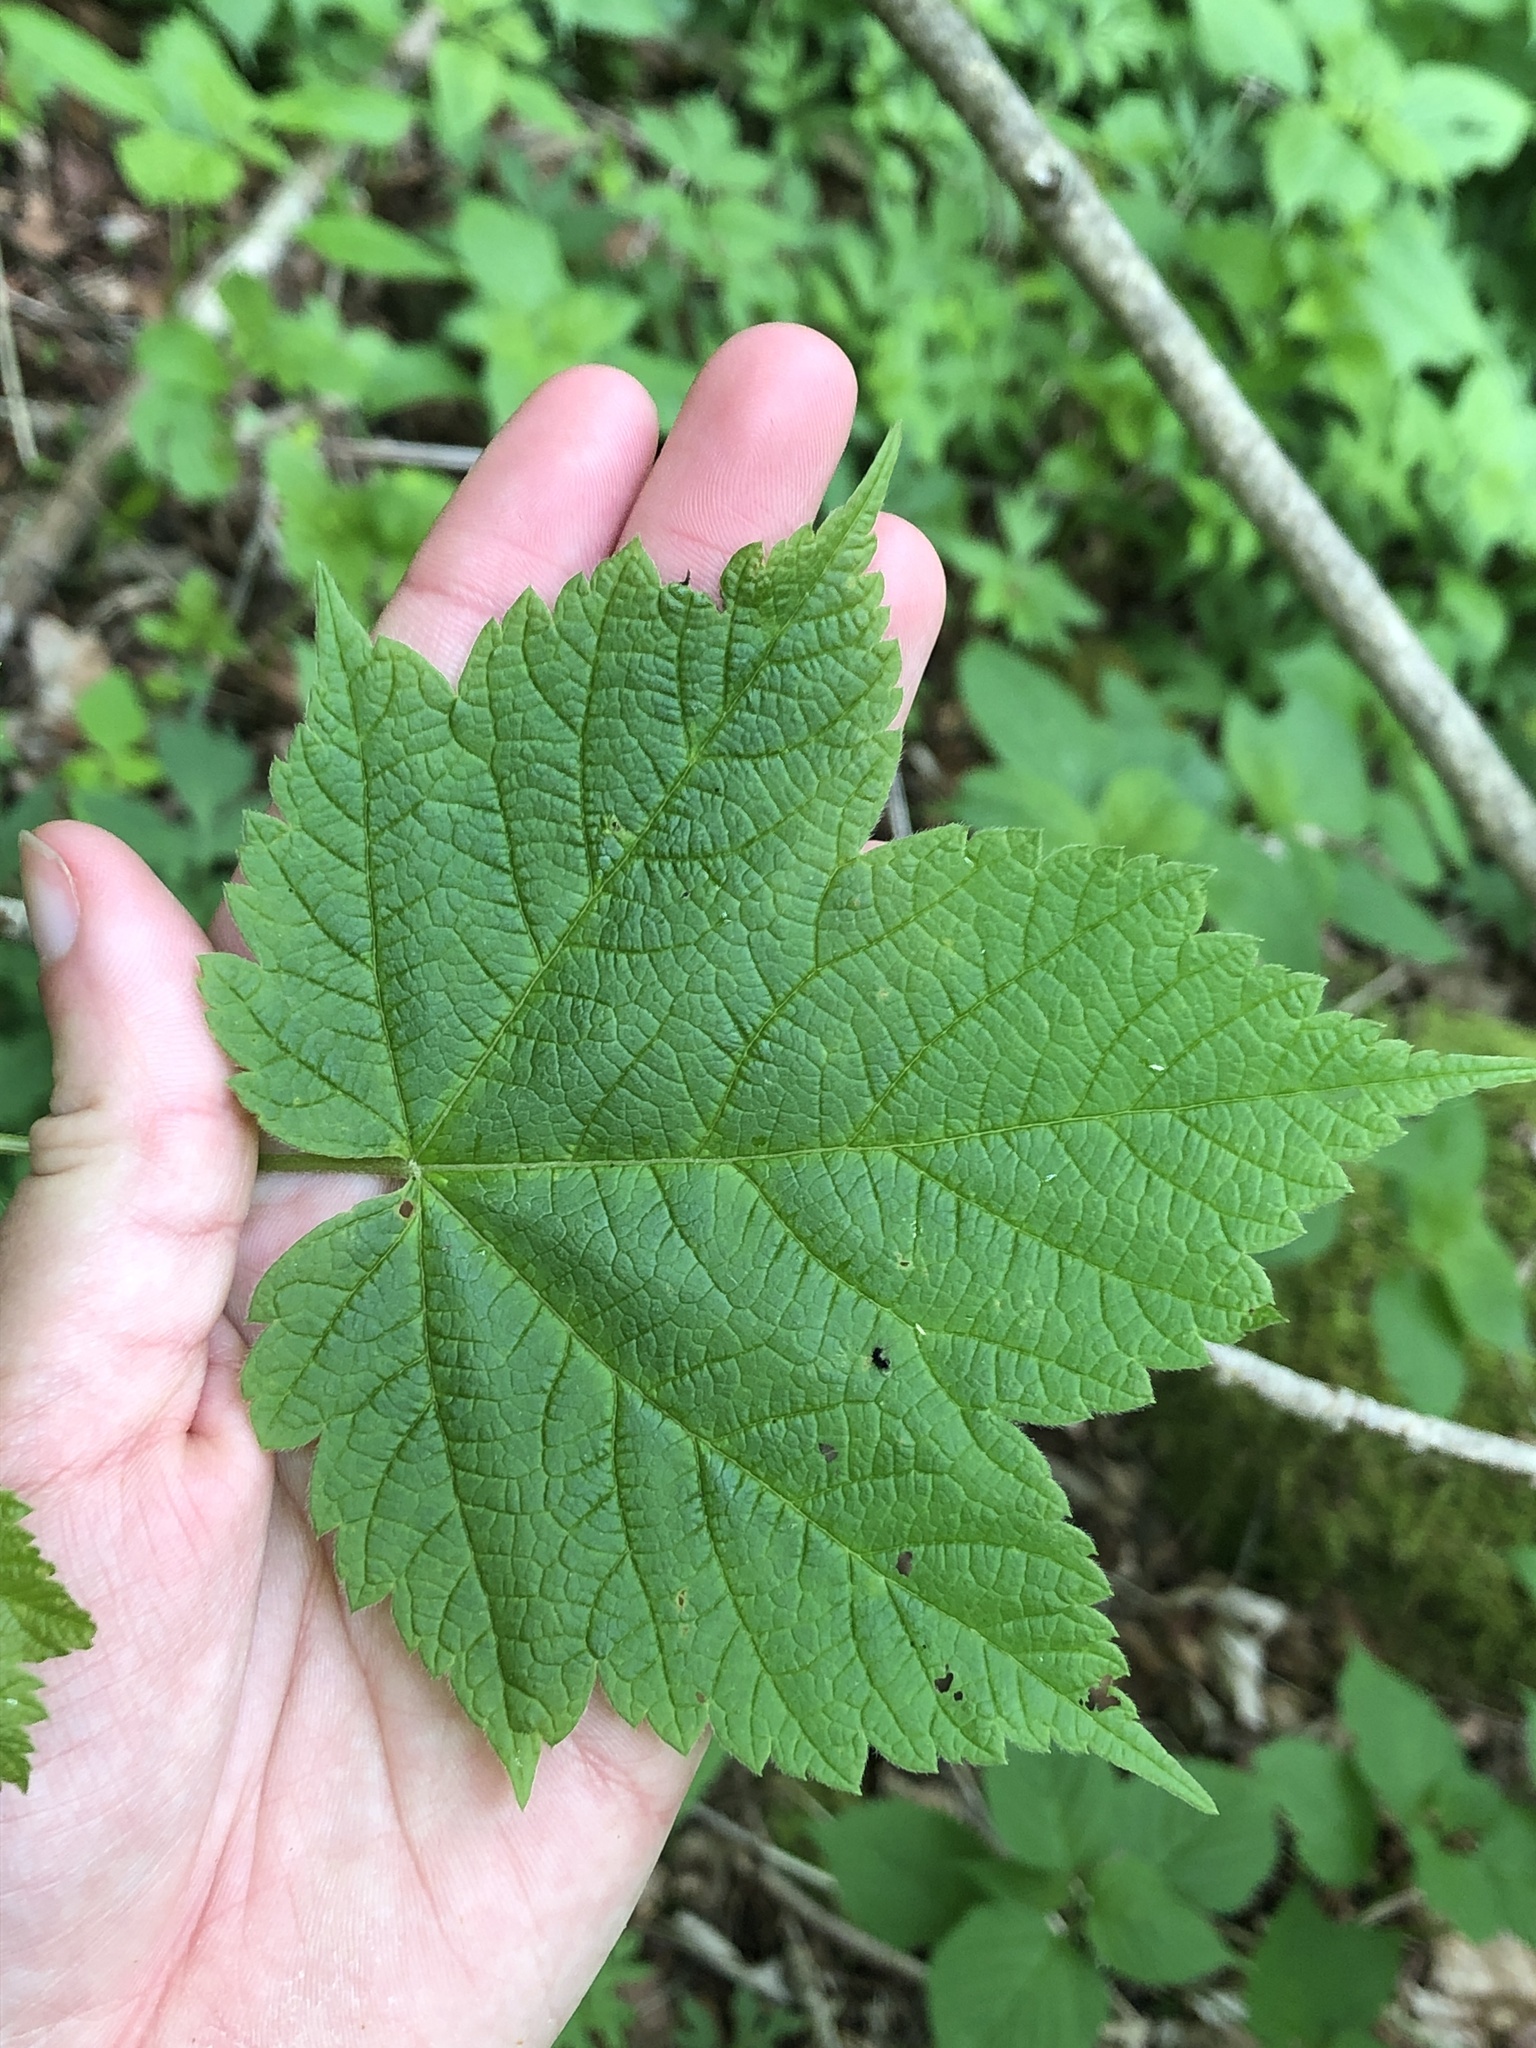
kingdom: Plantae
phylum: Tracheophyta
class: Magnoliopsida
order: Sapindales
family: Sapindaceae
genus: Acer
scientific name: Acer spicatum
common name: Mountain maple
